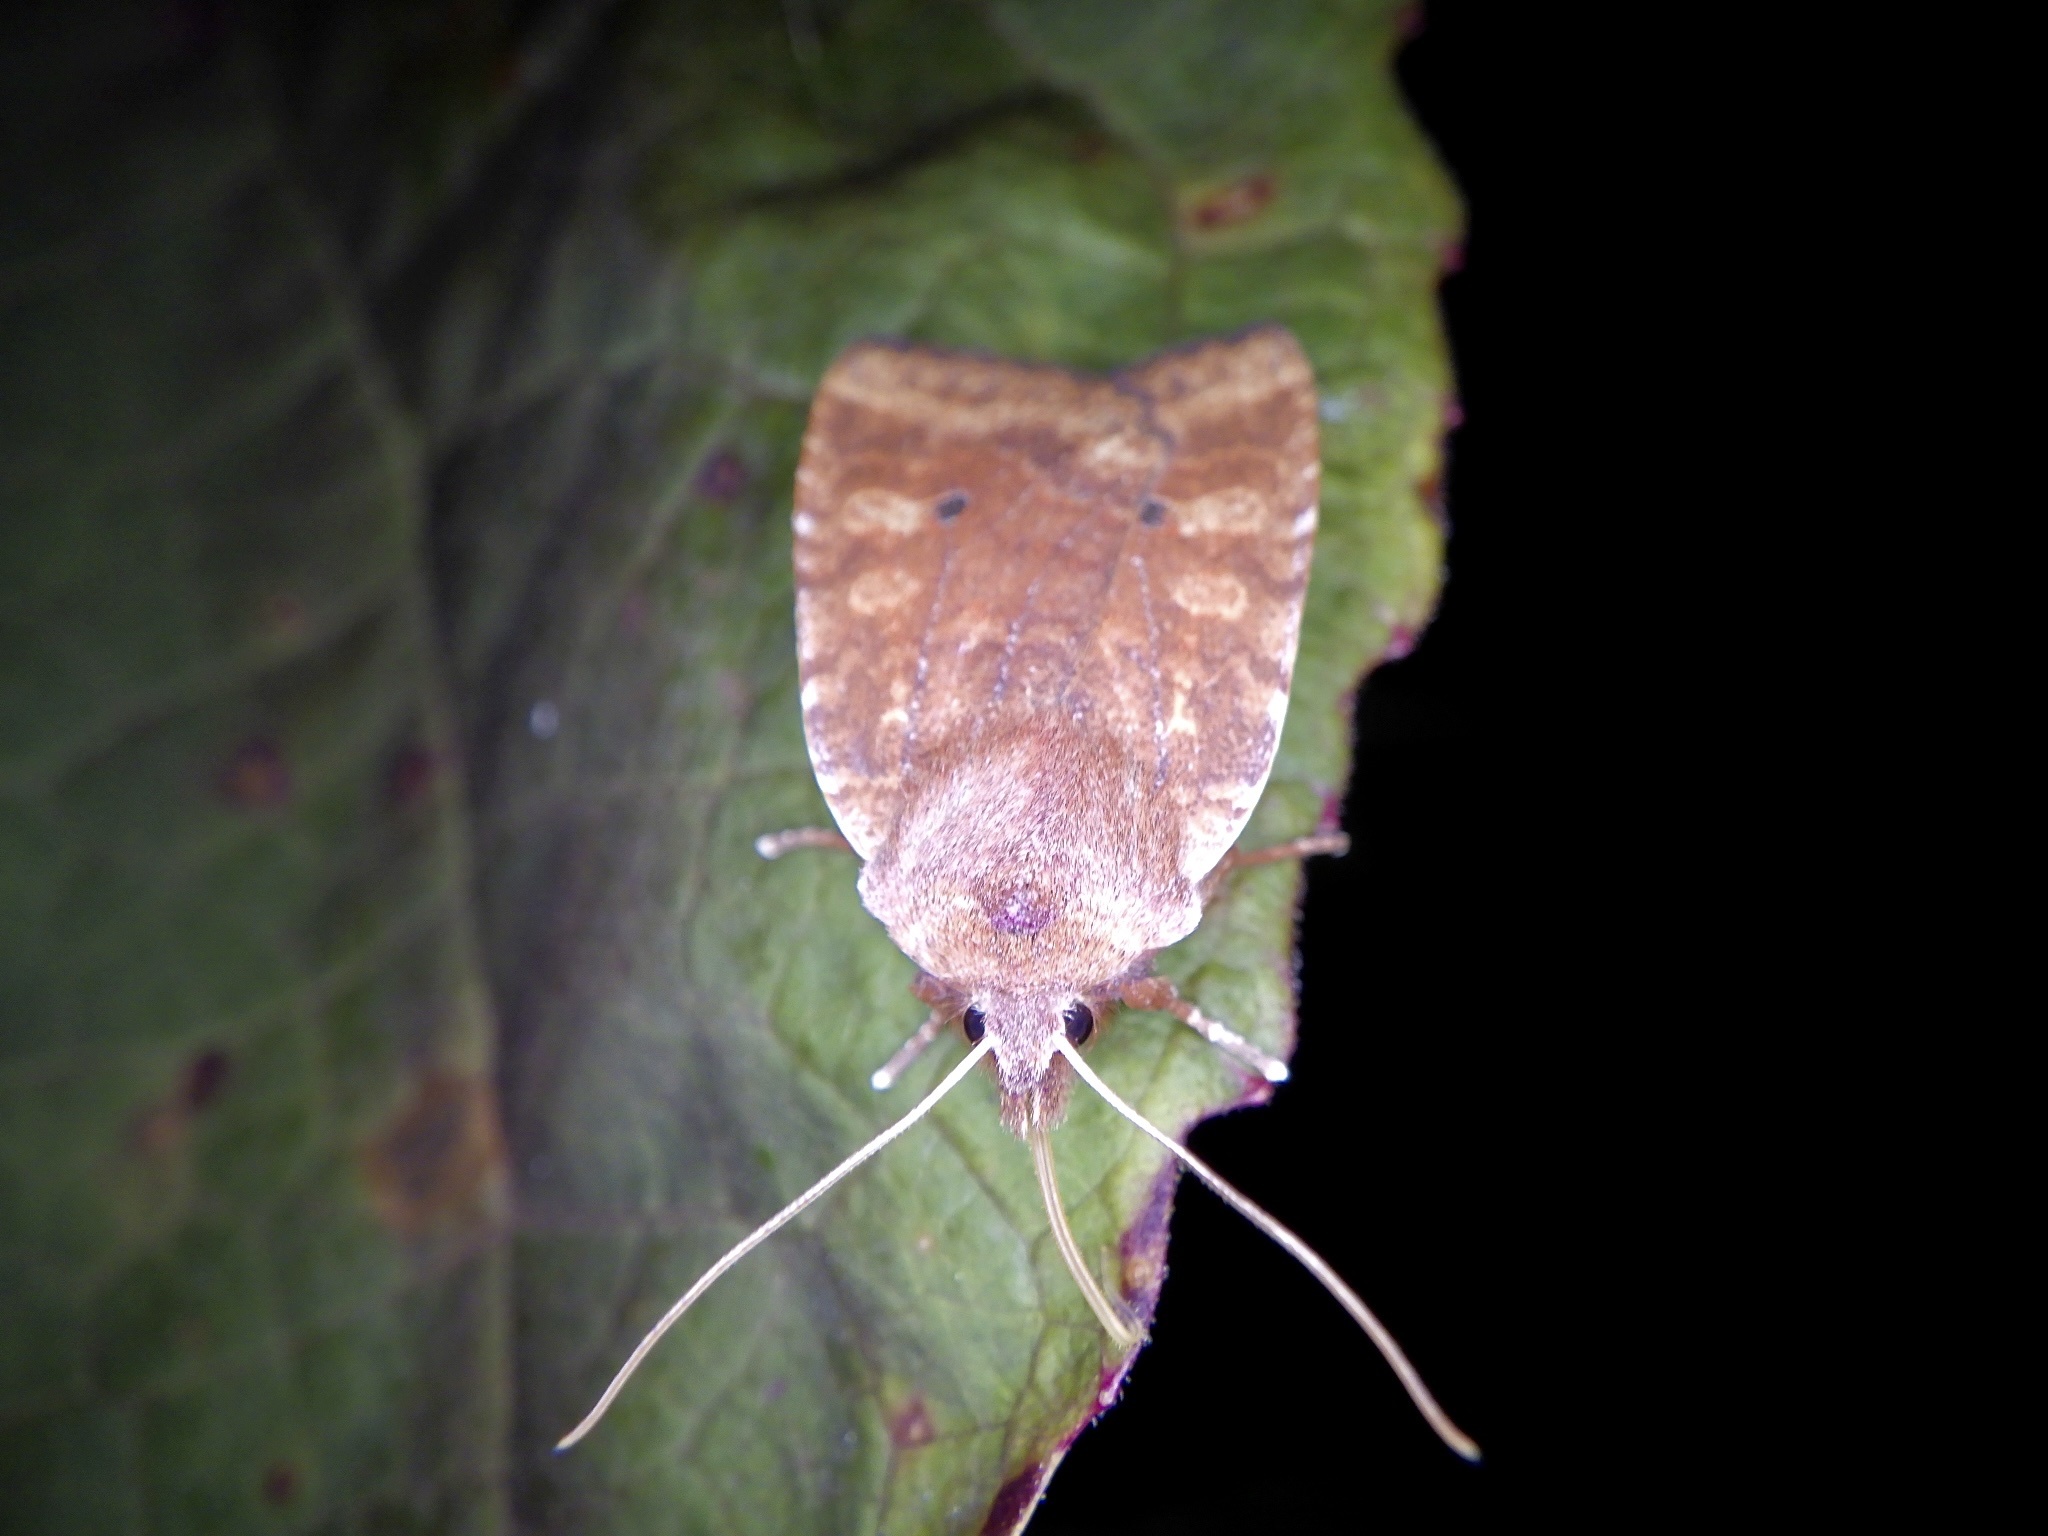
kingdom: Animalia
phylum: Arthropoda
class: Insecta
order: Lepidoptera
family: Noctuidae
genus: Conistra
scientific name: Conistra ardescens
